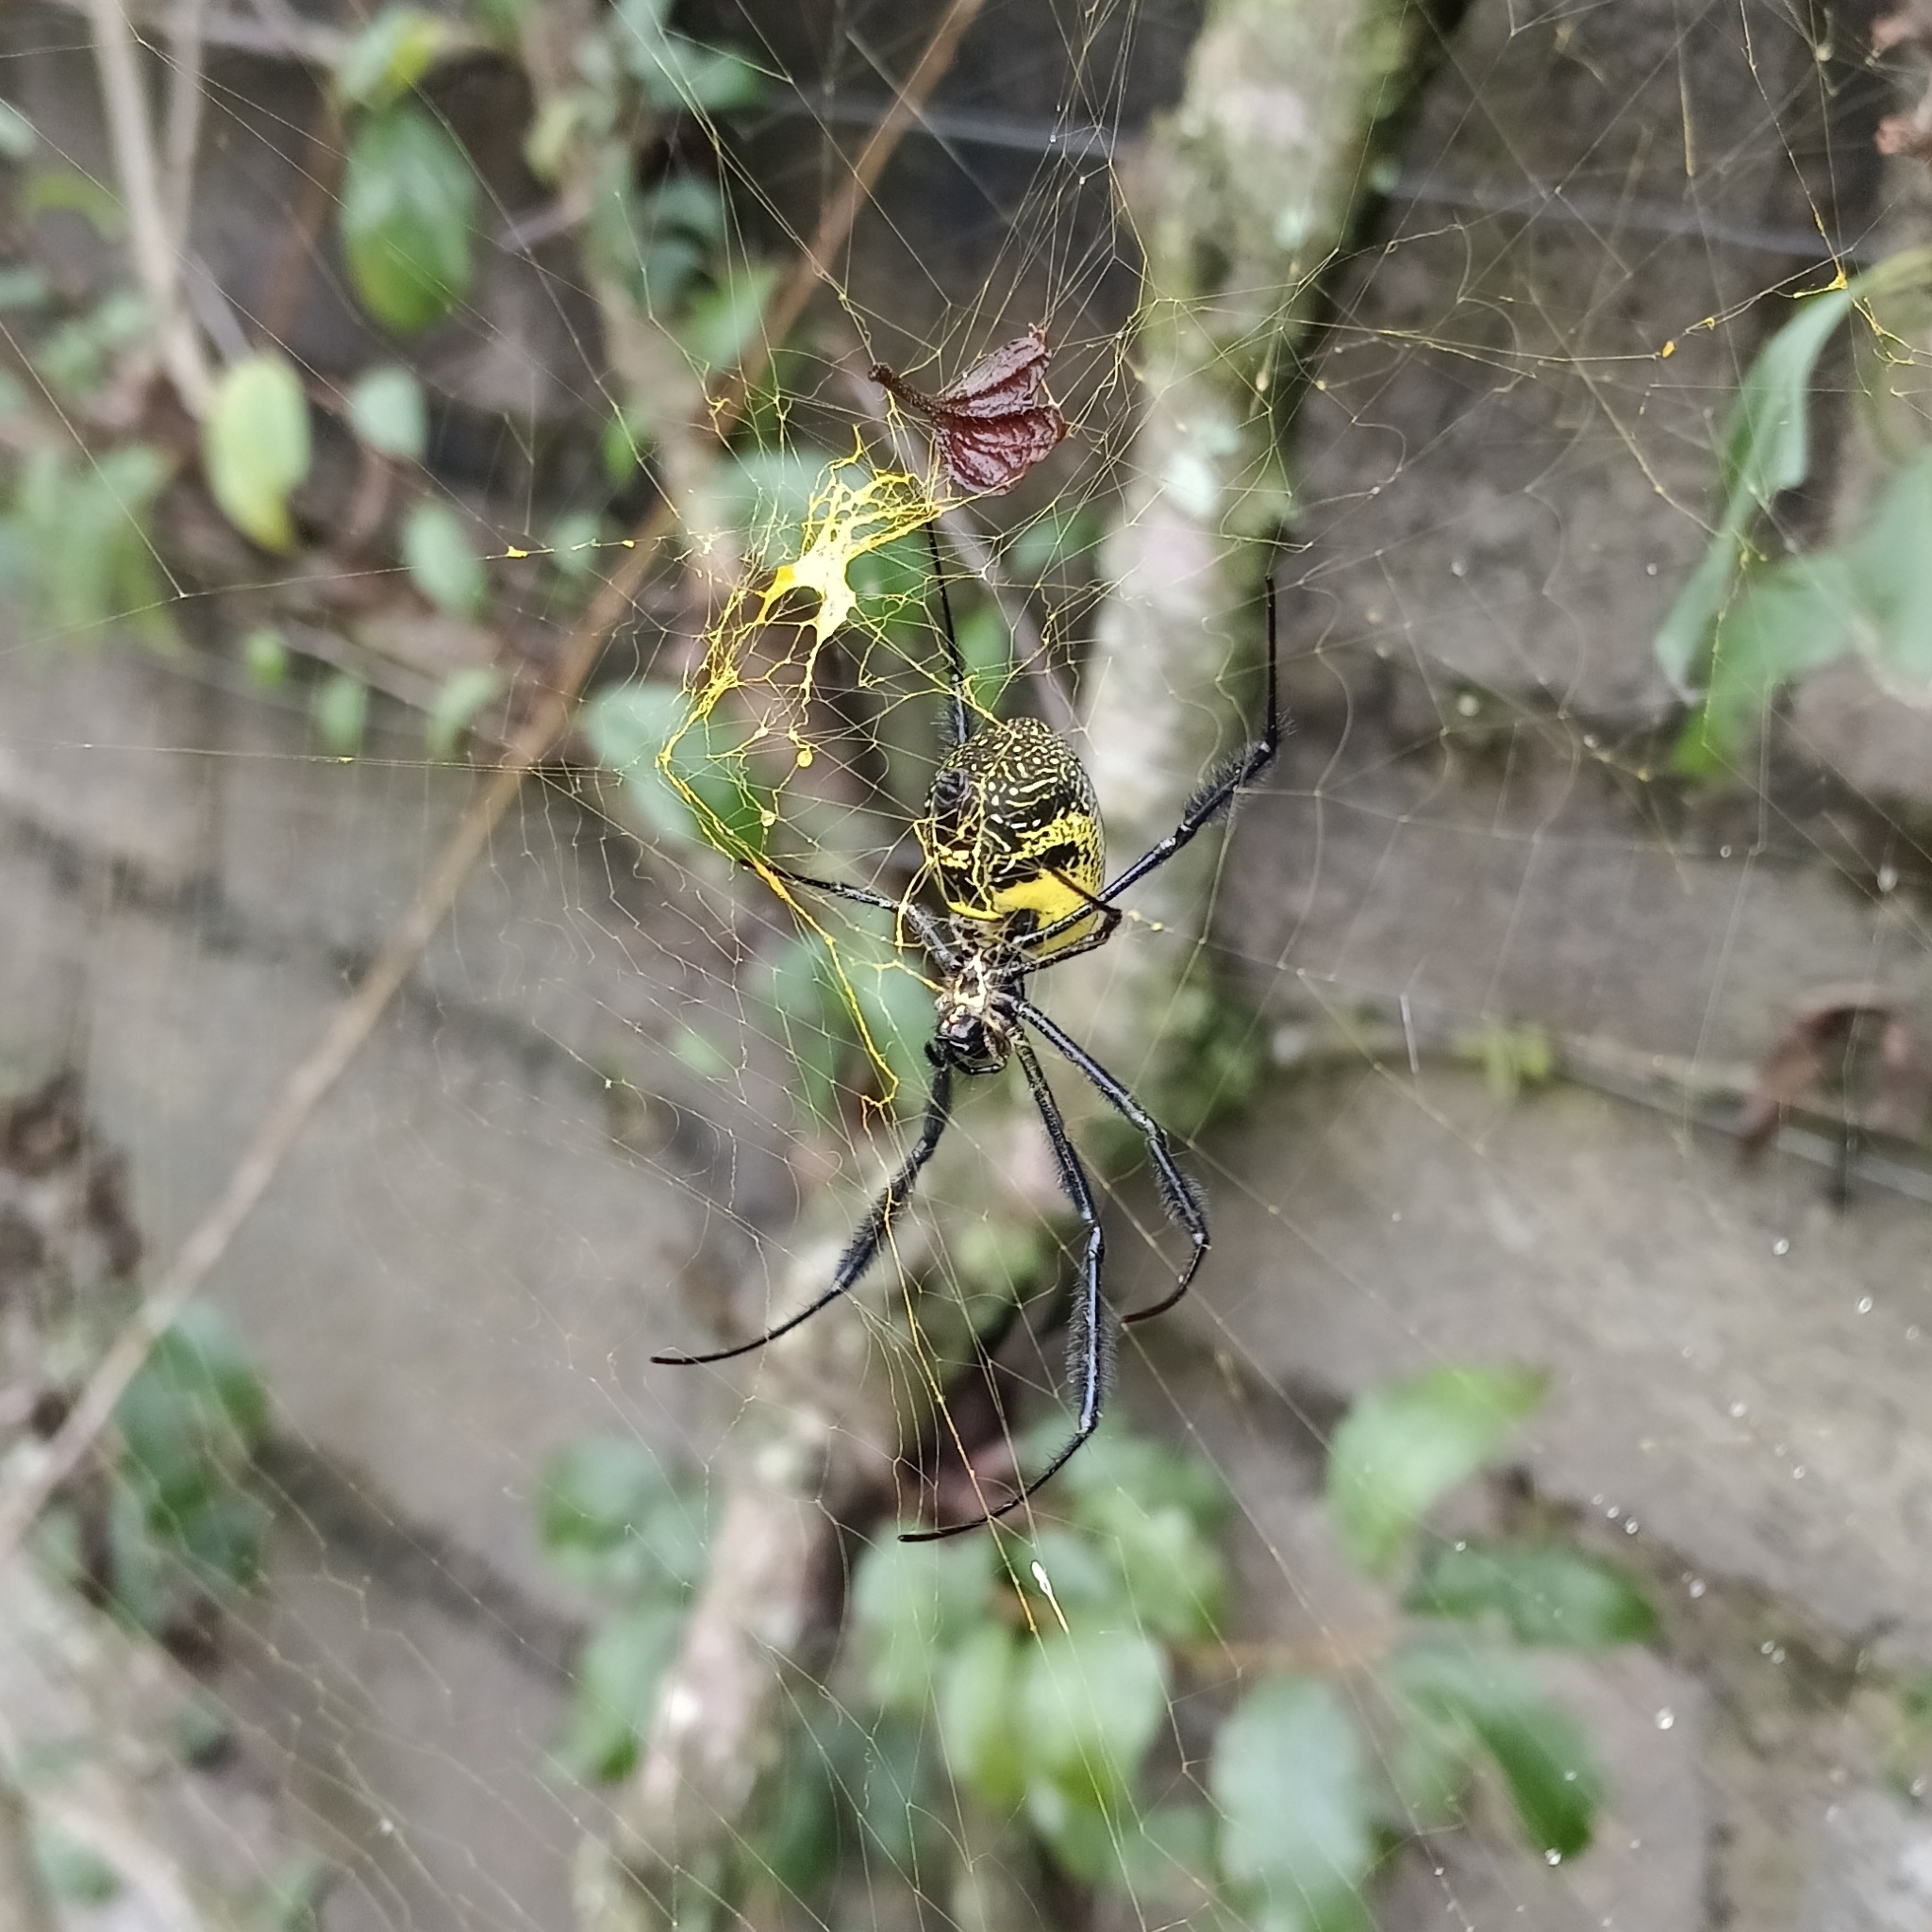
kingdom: Animalia
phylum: Arthropoda
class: Arachnida
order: Araneae
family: Araneidae
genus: Trichonephila
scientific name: Trichonephila fenestrata
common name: Hairy golden orb weaver
